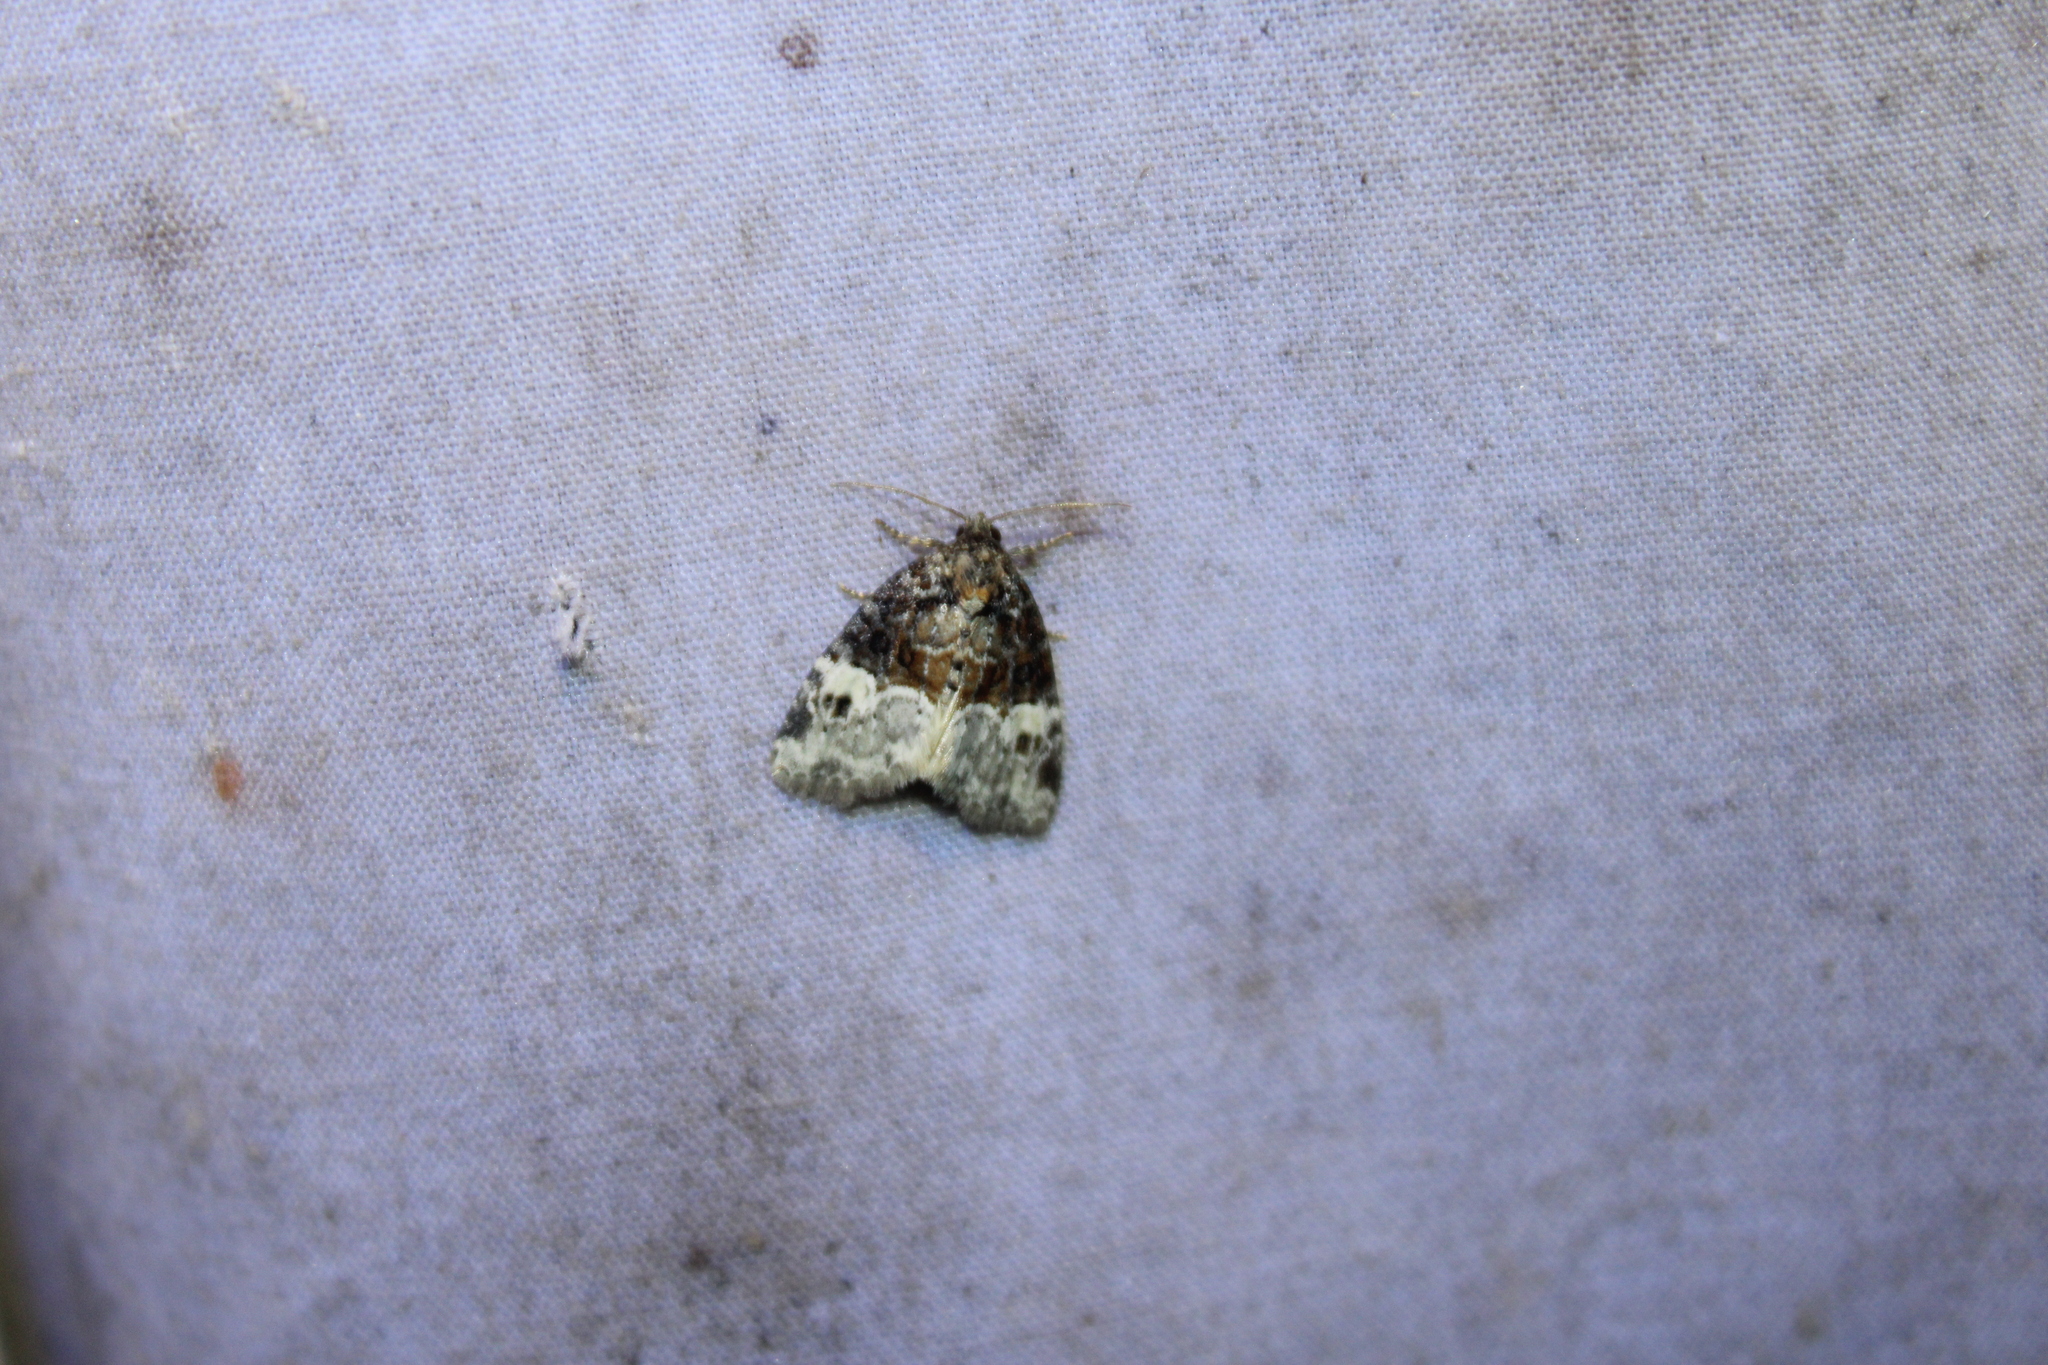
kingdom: Animalia
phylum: Arthropoda
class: Insecta
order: Lepidoptera
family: Noctuidae
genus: Neoligia
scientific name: Neoligia crytora
